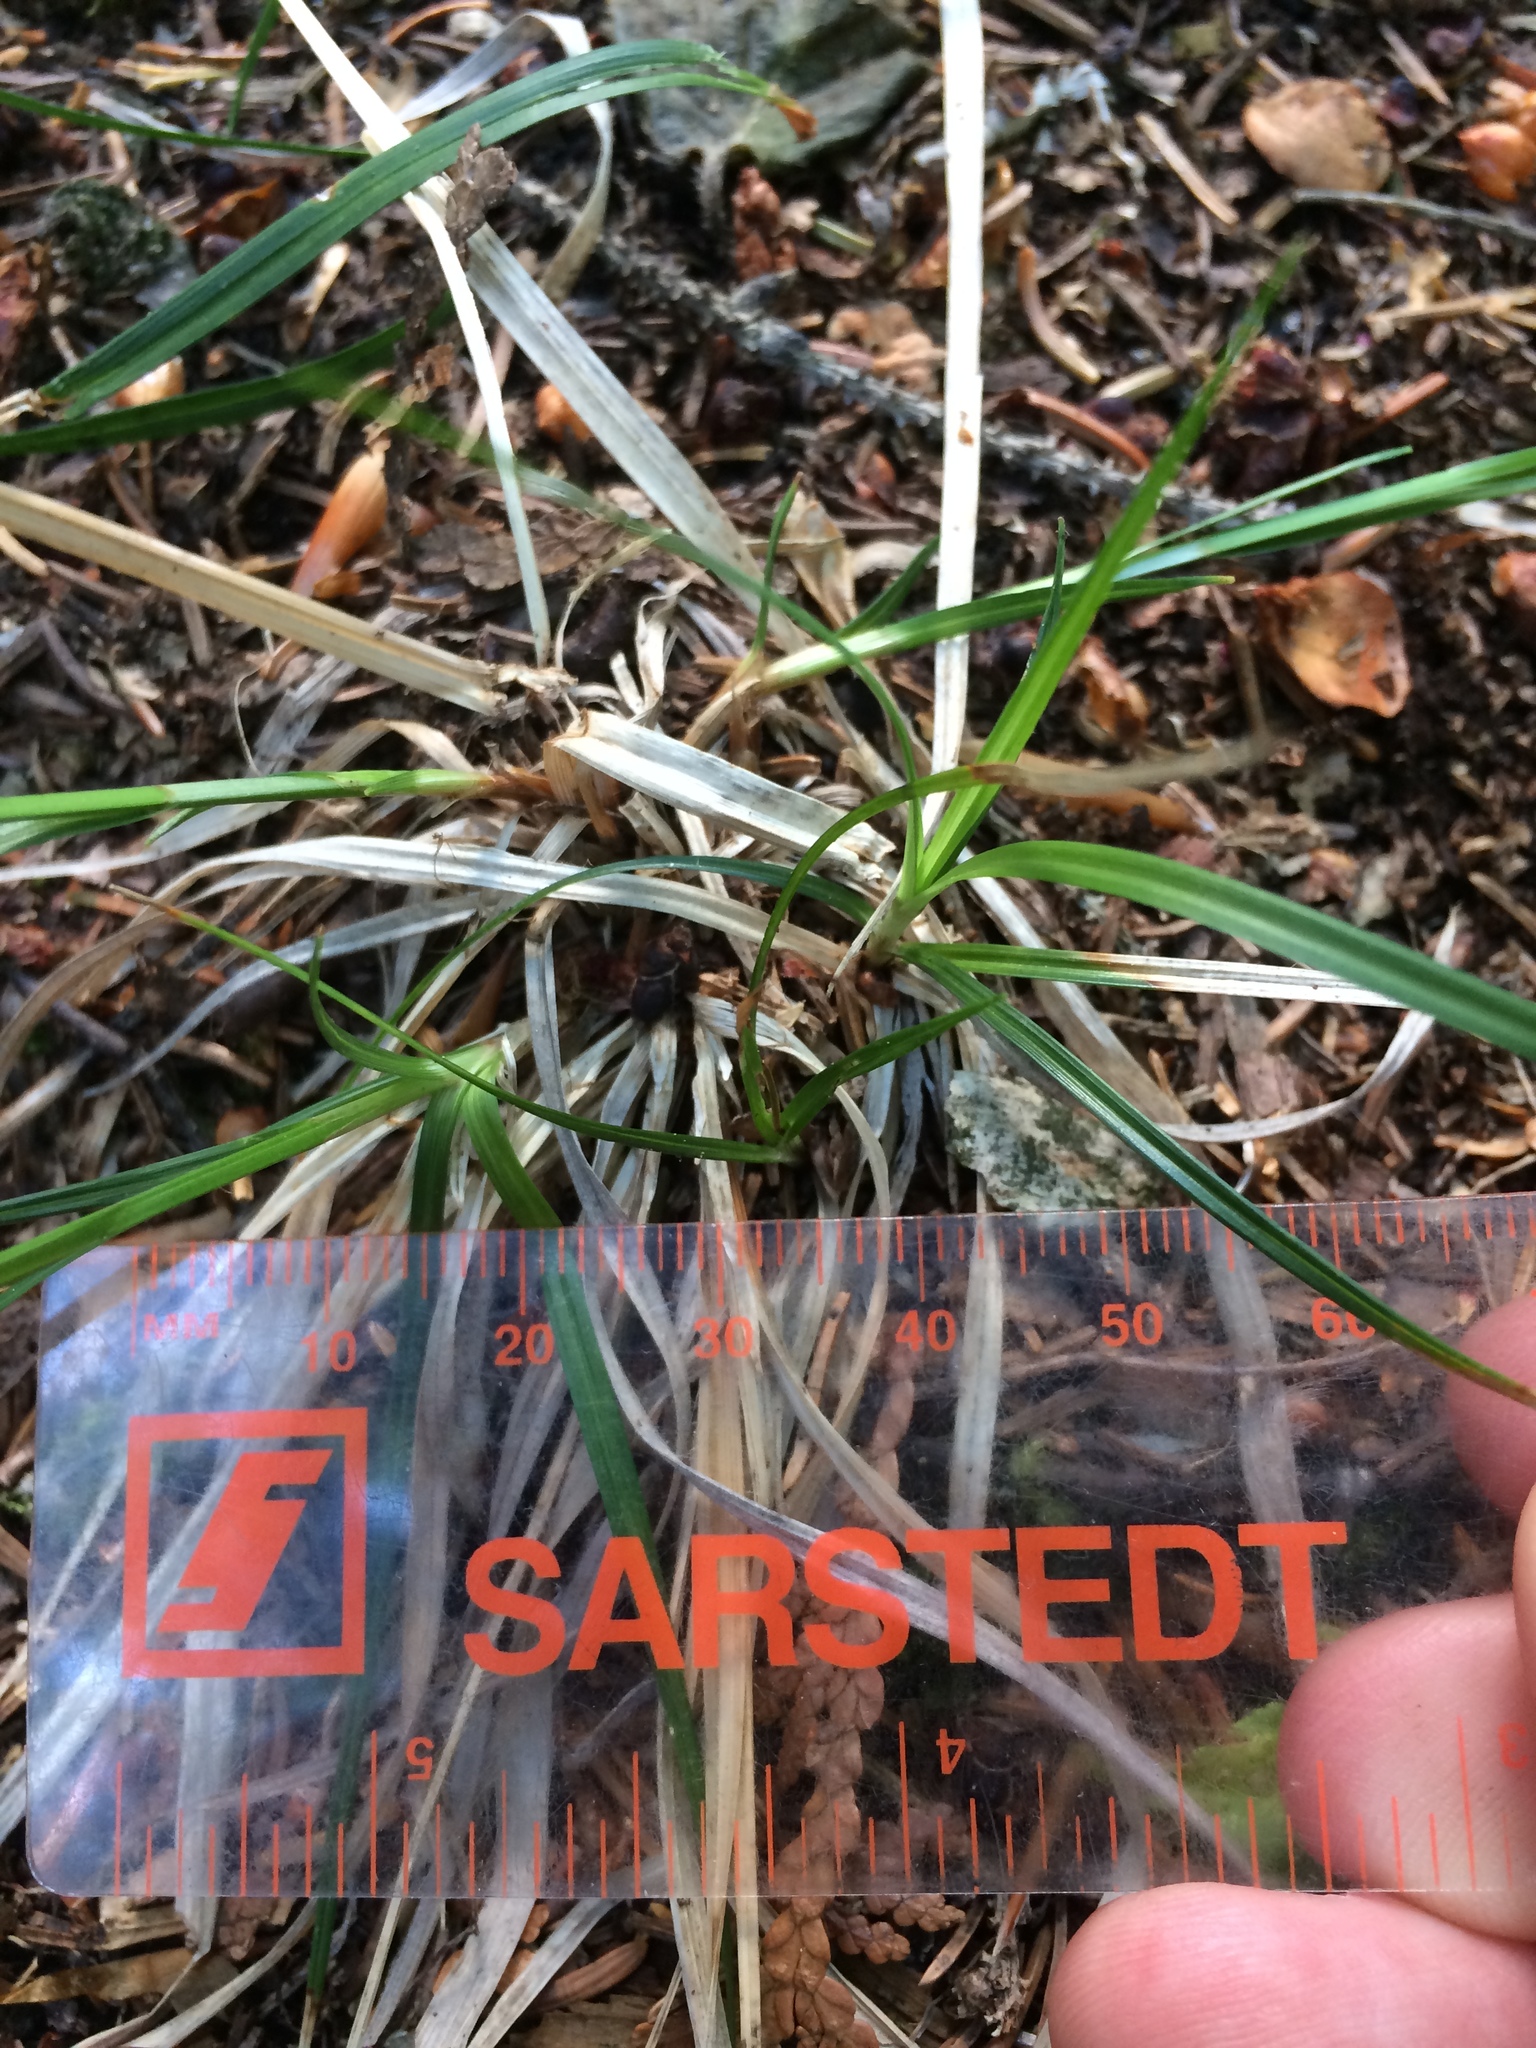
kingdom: Plantae
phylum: Tracheophyta
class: Liliopsida
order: Poales
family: Cyperaceae
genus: Carex
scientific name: Carex communis
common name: Colonial oak sedge
